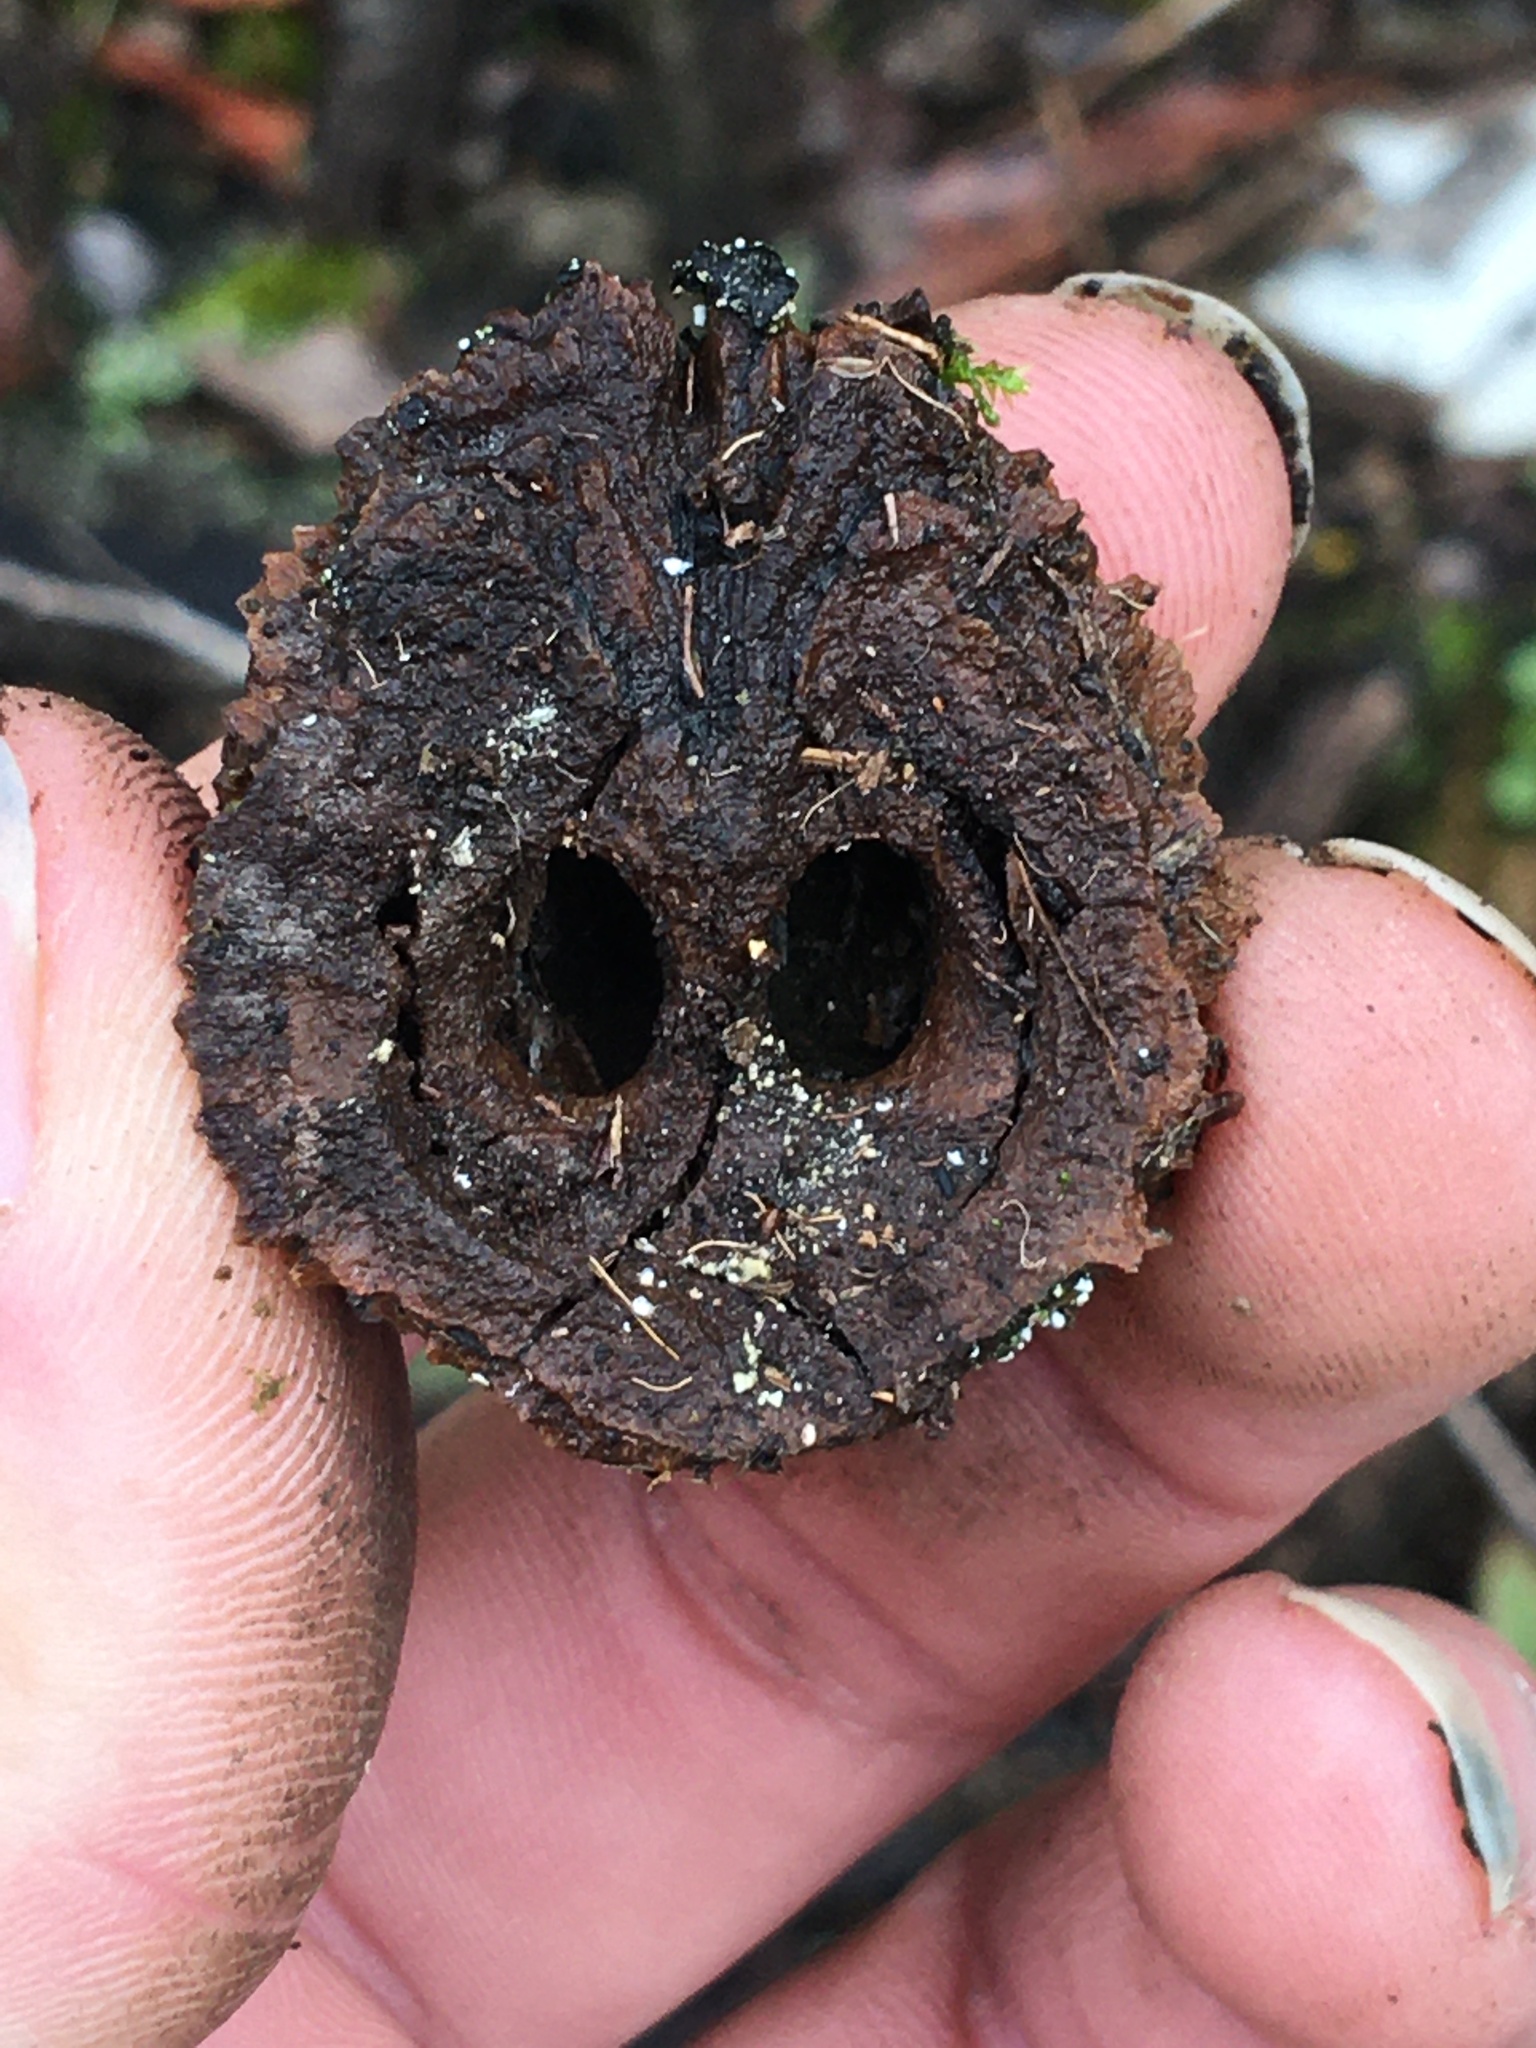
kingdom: Plantae
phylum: Tracheophyta
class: Magnoliopsida
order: Fagales
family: Juglandaceae
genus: Juglans
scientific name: Juglans nigra
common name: Black walnut
